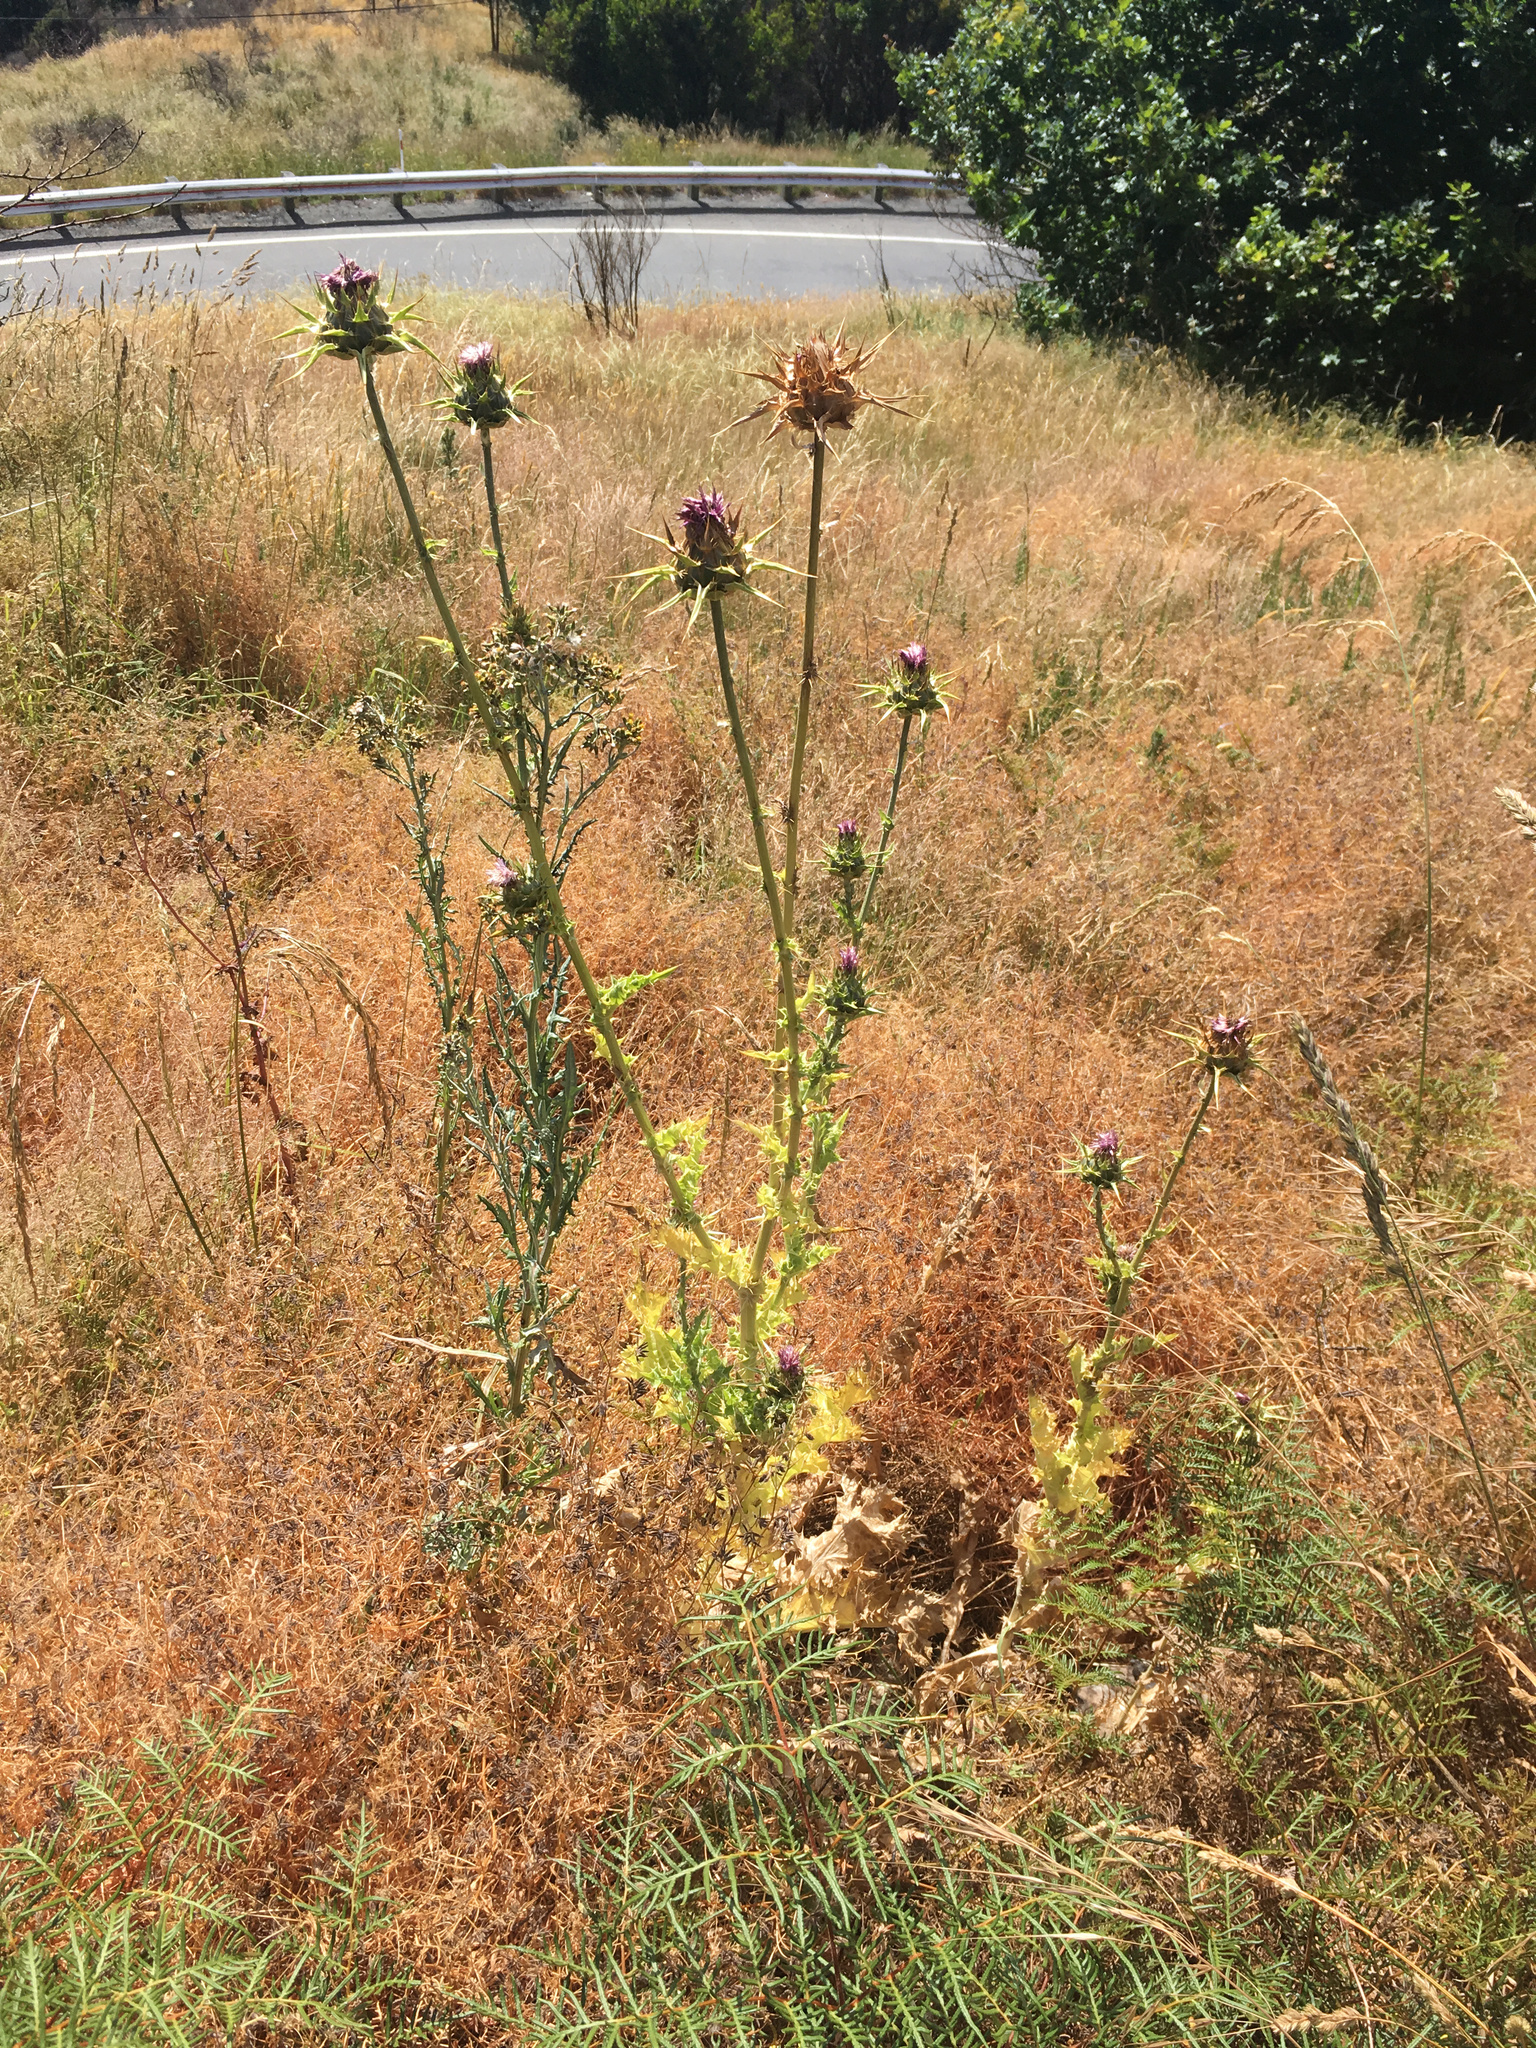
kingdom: Plantae
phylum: Tracheophyta
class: Magnoliopsida
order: Asterales
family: Asteraceae
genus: Silybum
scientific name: Silybum marianum
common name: Milk thistle
